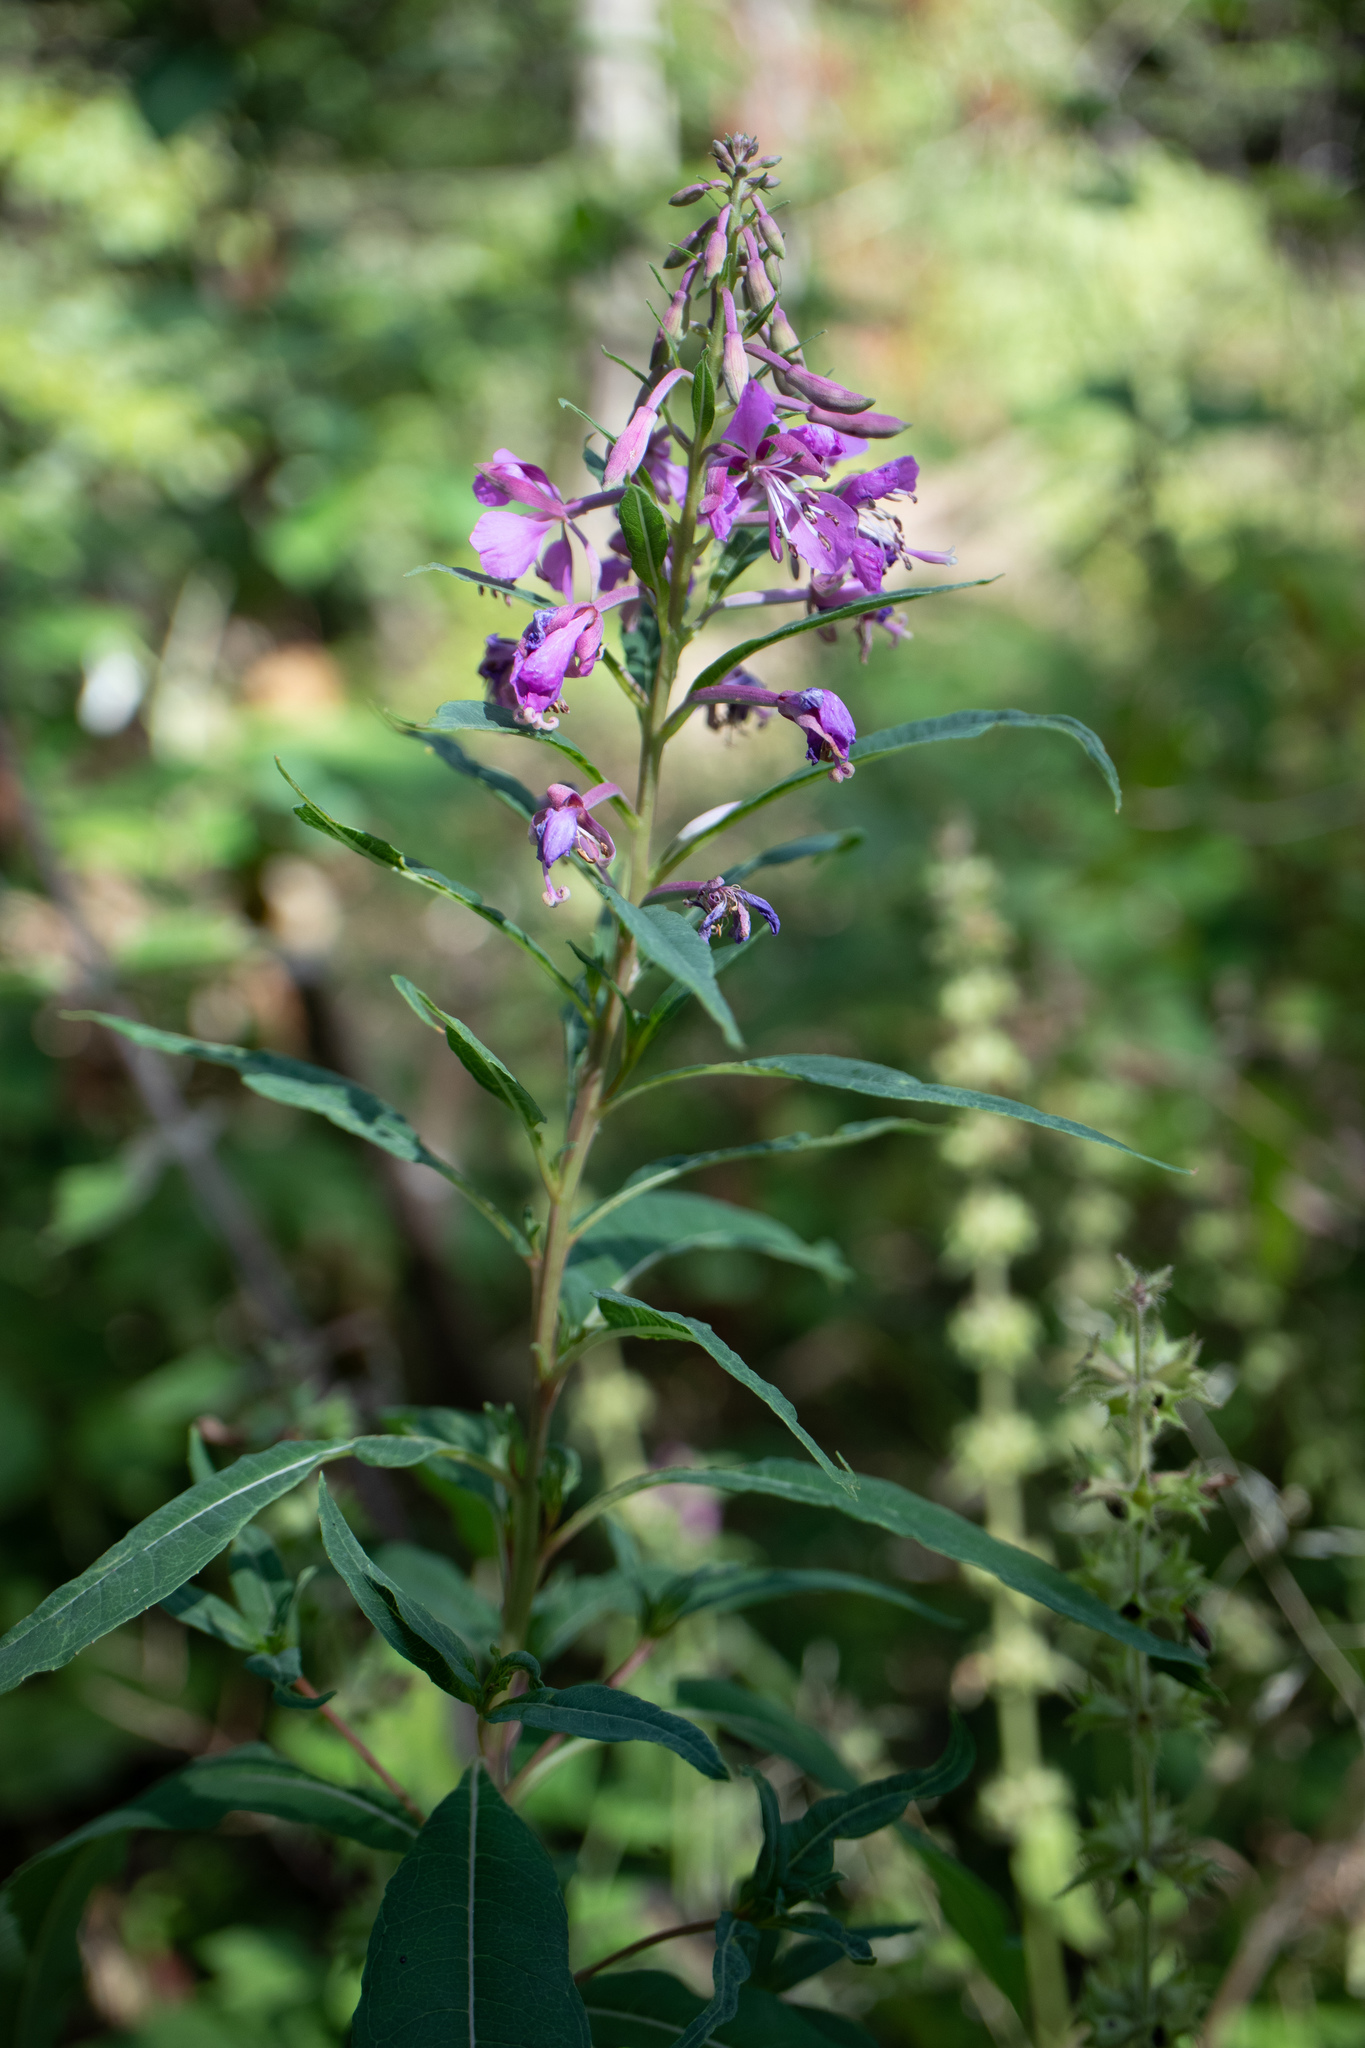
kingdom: Plantae
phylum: Tracheophyta
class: Magnoliopsida
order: Myrtales
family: Onagraceae
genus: Chamaenerion
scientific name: Chamaenerion angustifolium
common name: Fireweed
